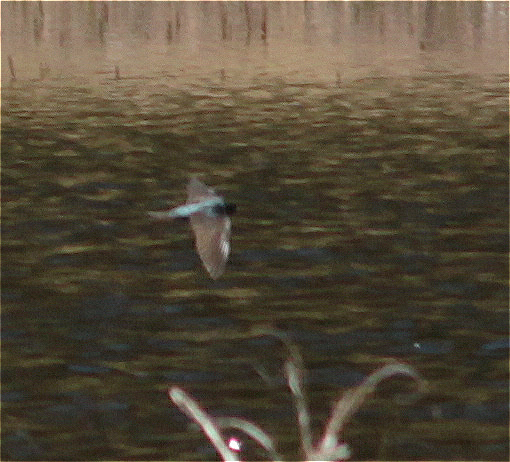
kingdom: Animalia
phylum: Chordata
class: Aves
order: Passeriformes
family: Hirundinidae
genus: Notiochelidon
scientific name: Notiochelidon murina
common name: Brown-bellied swallow
